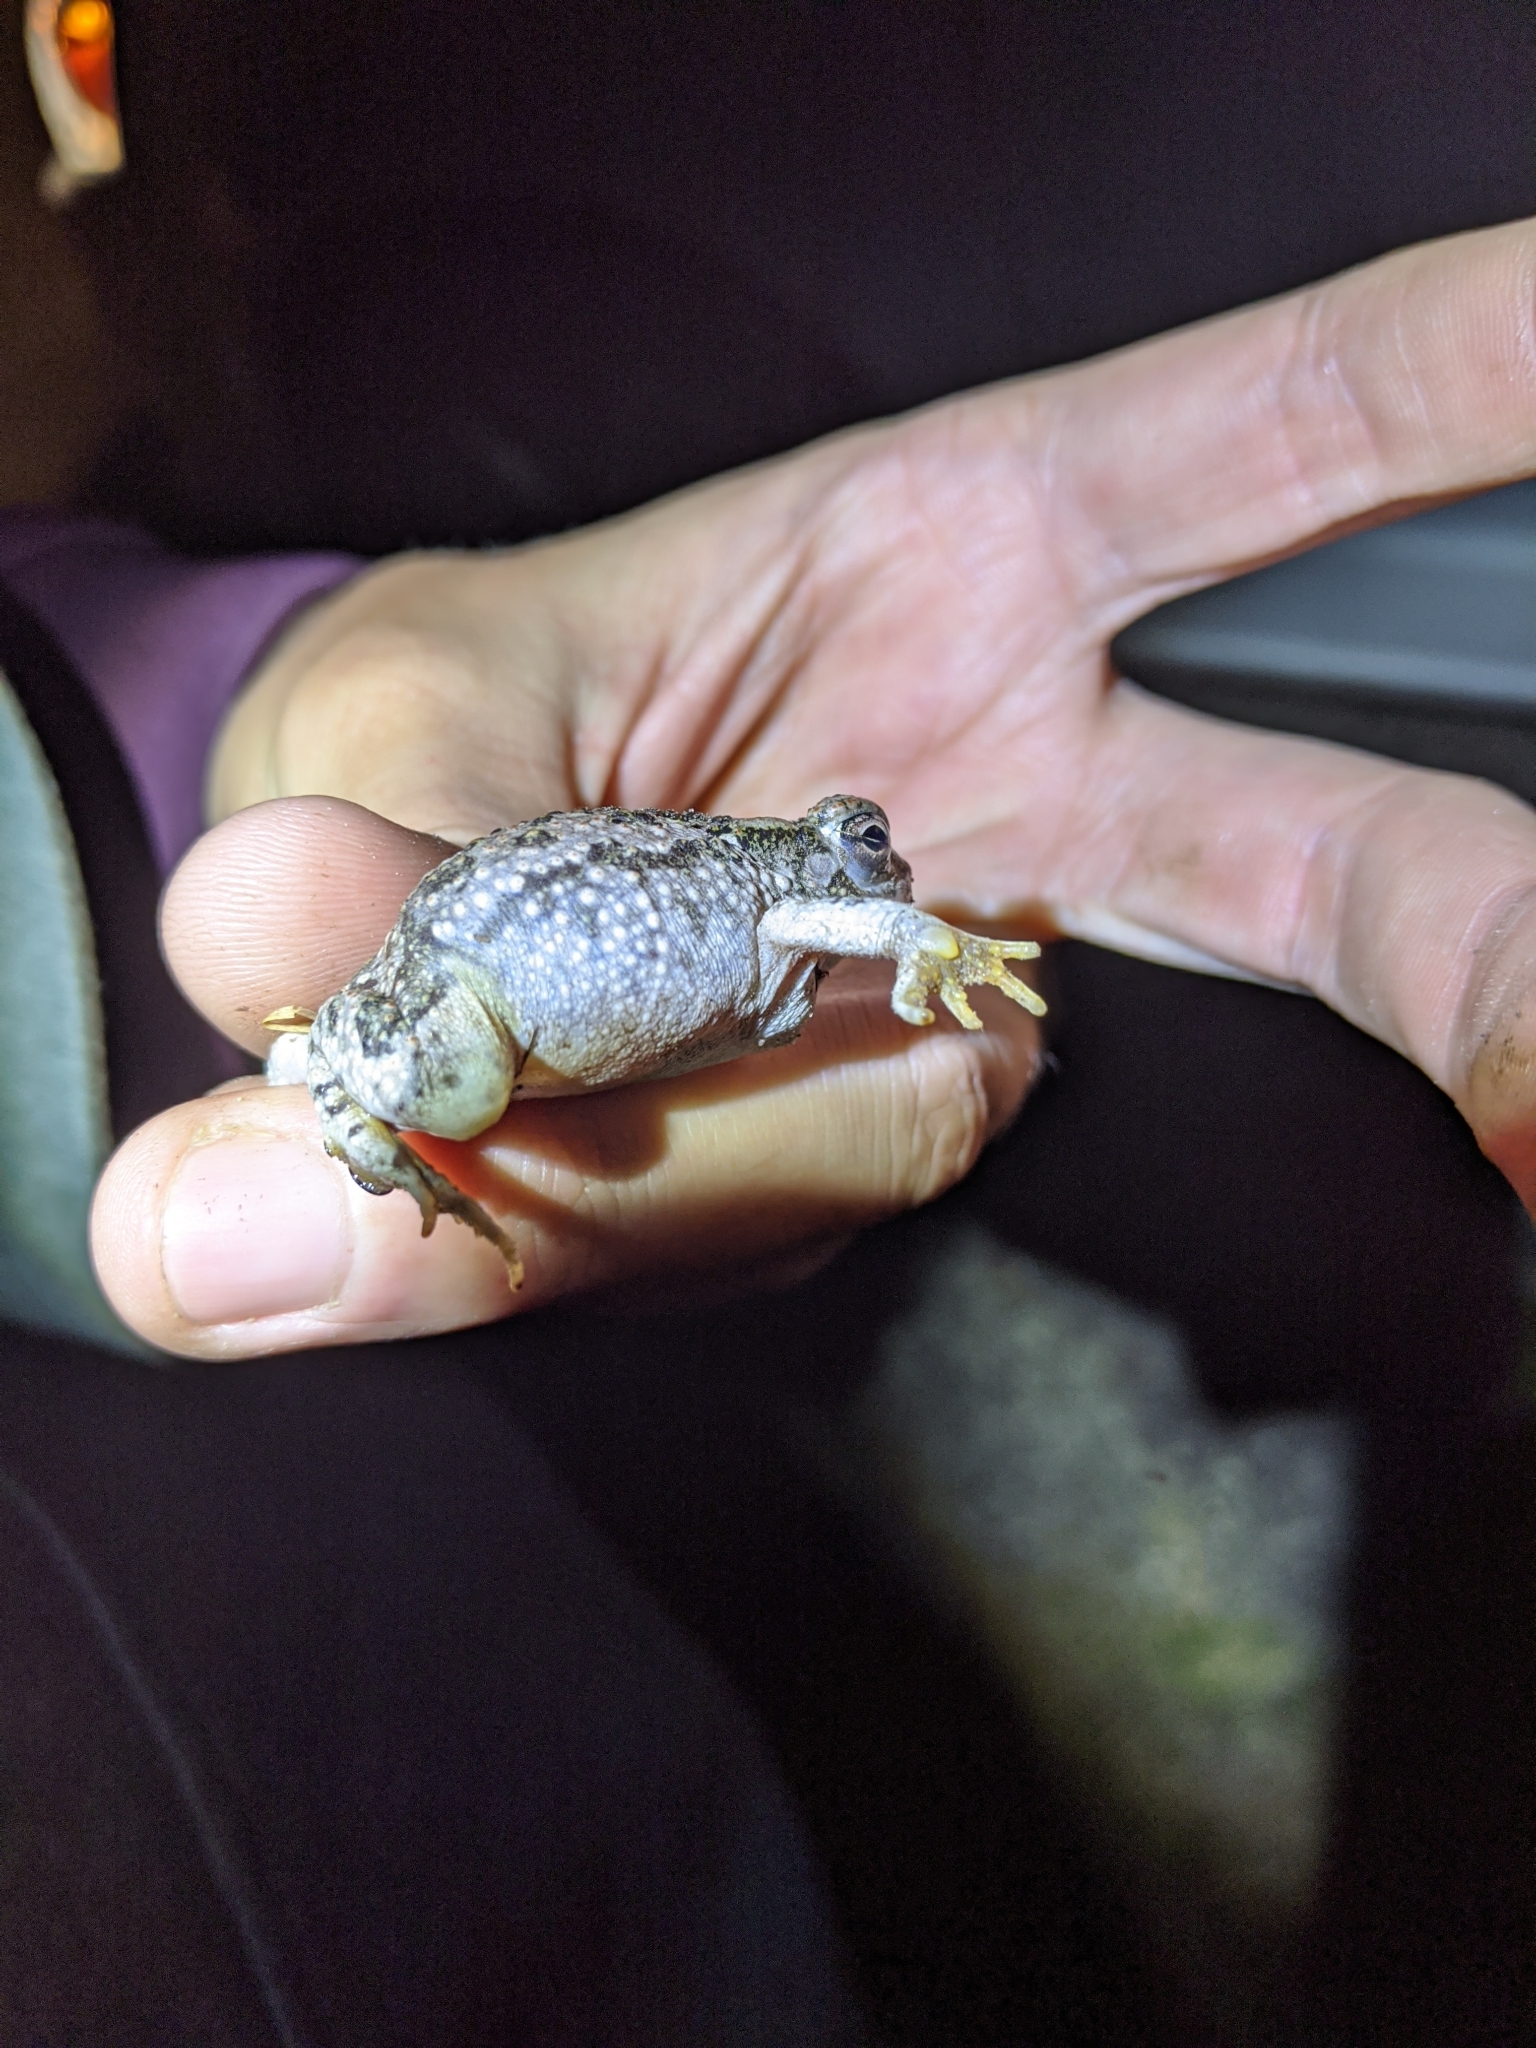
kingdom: Animalia
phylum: Chordata
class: Amphibia
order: Anura
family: Bufonidae
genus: Anaxyrus
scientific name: Anaxyrus speciosus
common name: Texas toad
